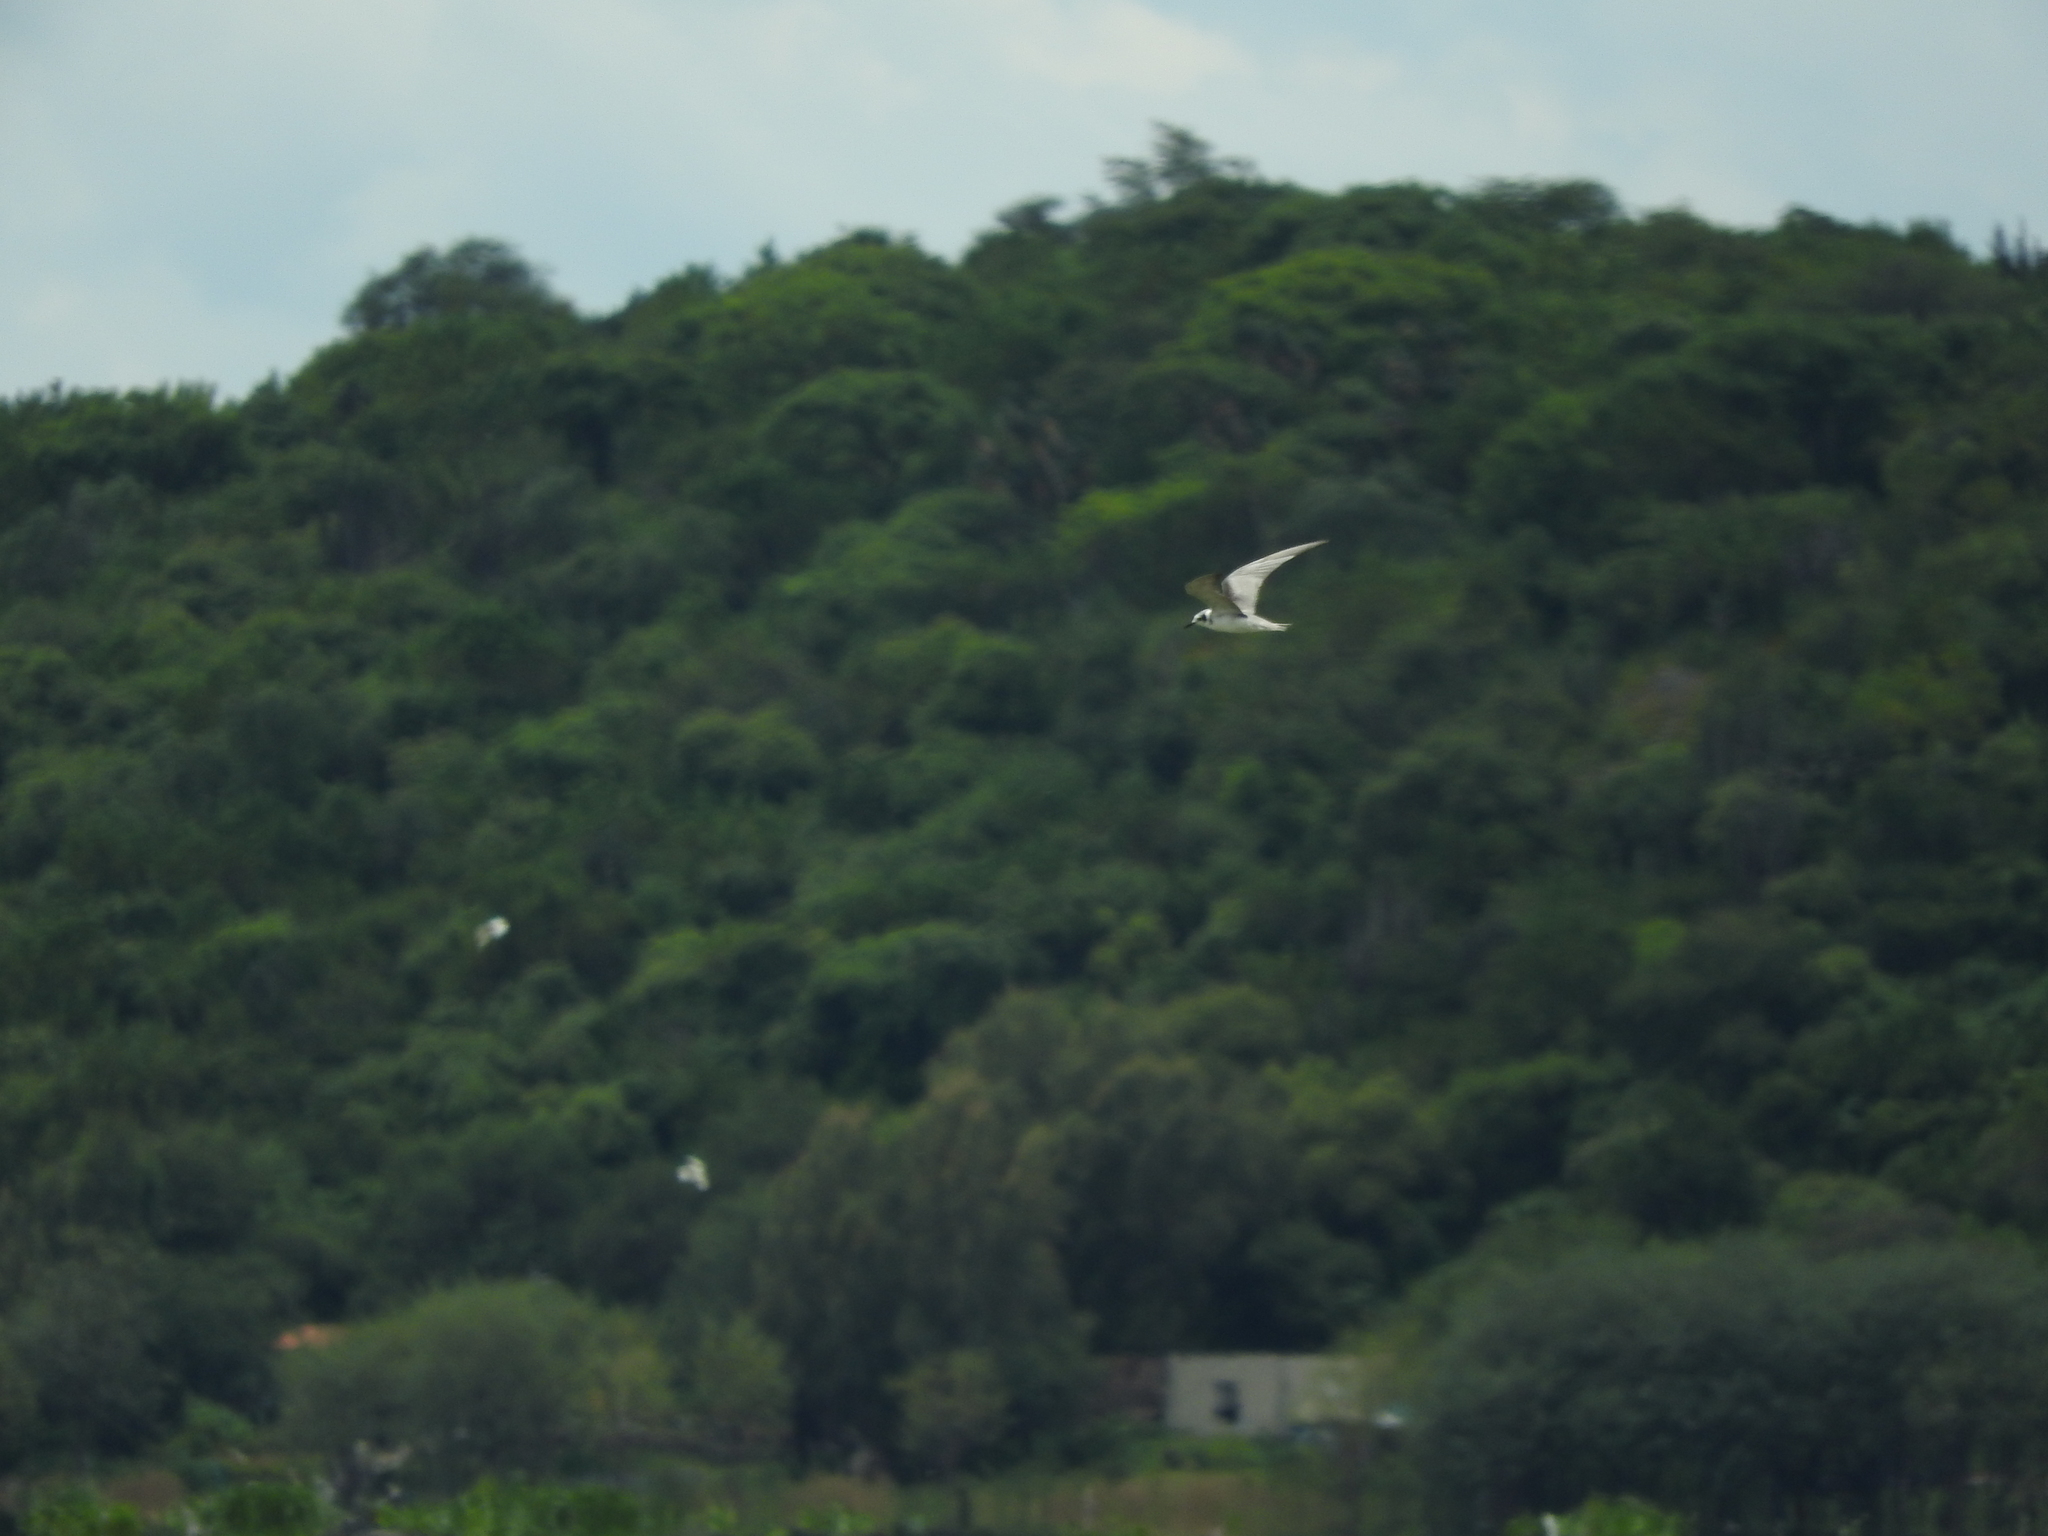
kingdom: Animalia
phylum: Chordata
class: Aves
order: Charadriiformes
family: Laridae
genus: Chlidonias
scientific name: Chlidonias niger
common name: Black tern
